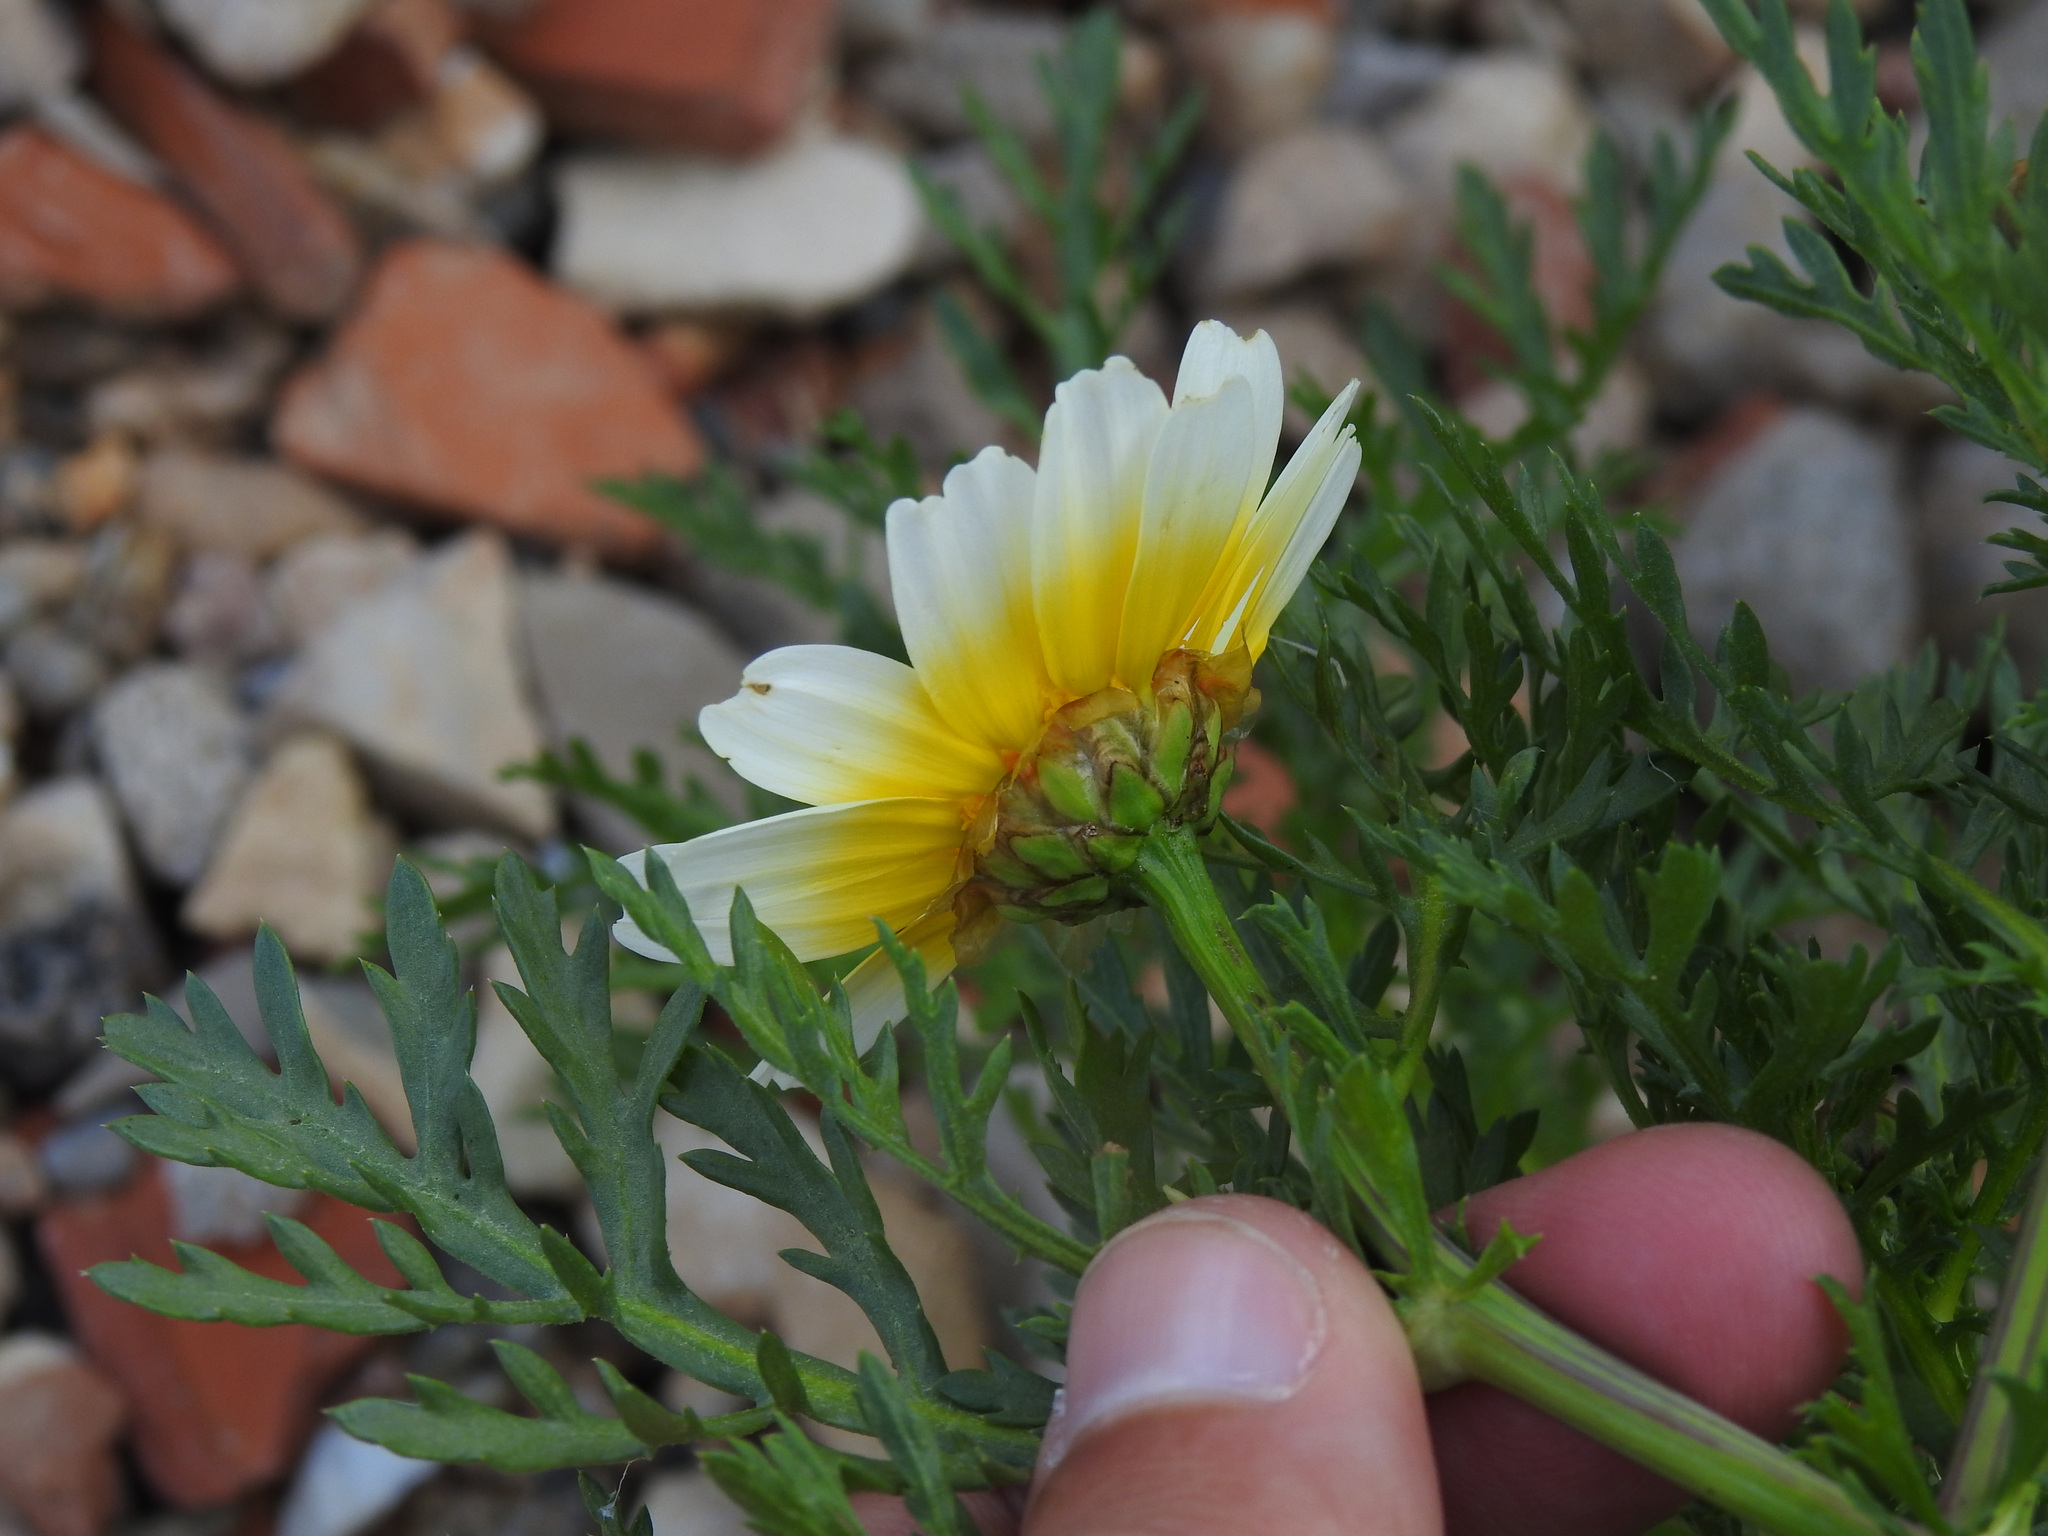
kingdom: Plantae
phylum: Tracheophyta
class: Magnoliopsida
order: Asterales
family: Asteraceae
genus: Glebionis
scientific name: Glebionis coronaria
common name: Crowndaisy
